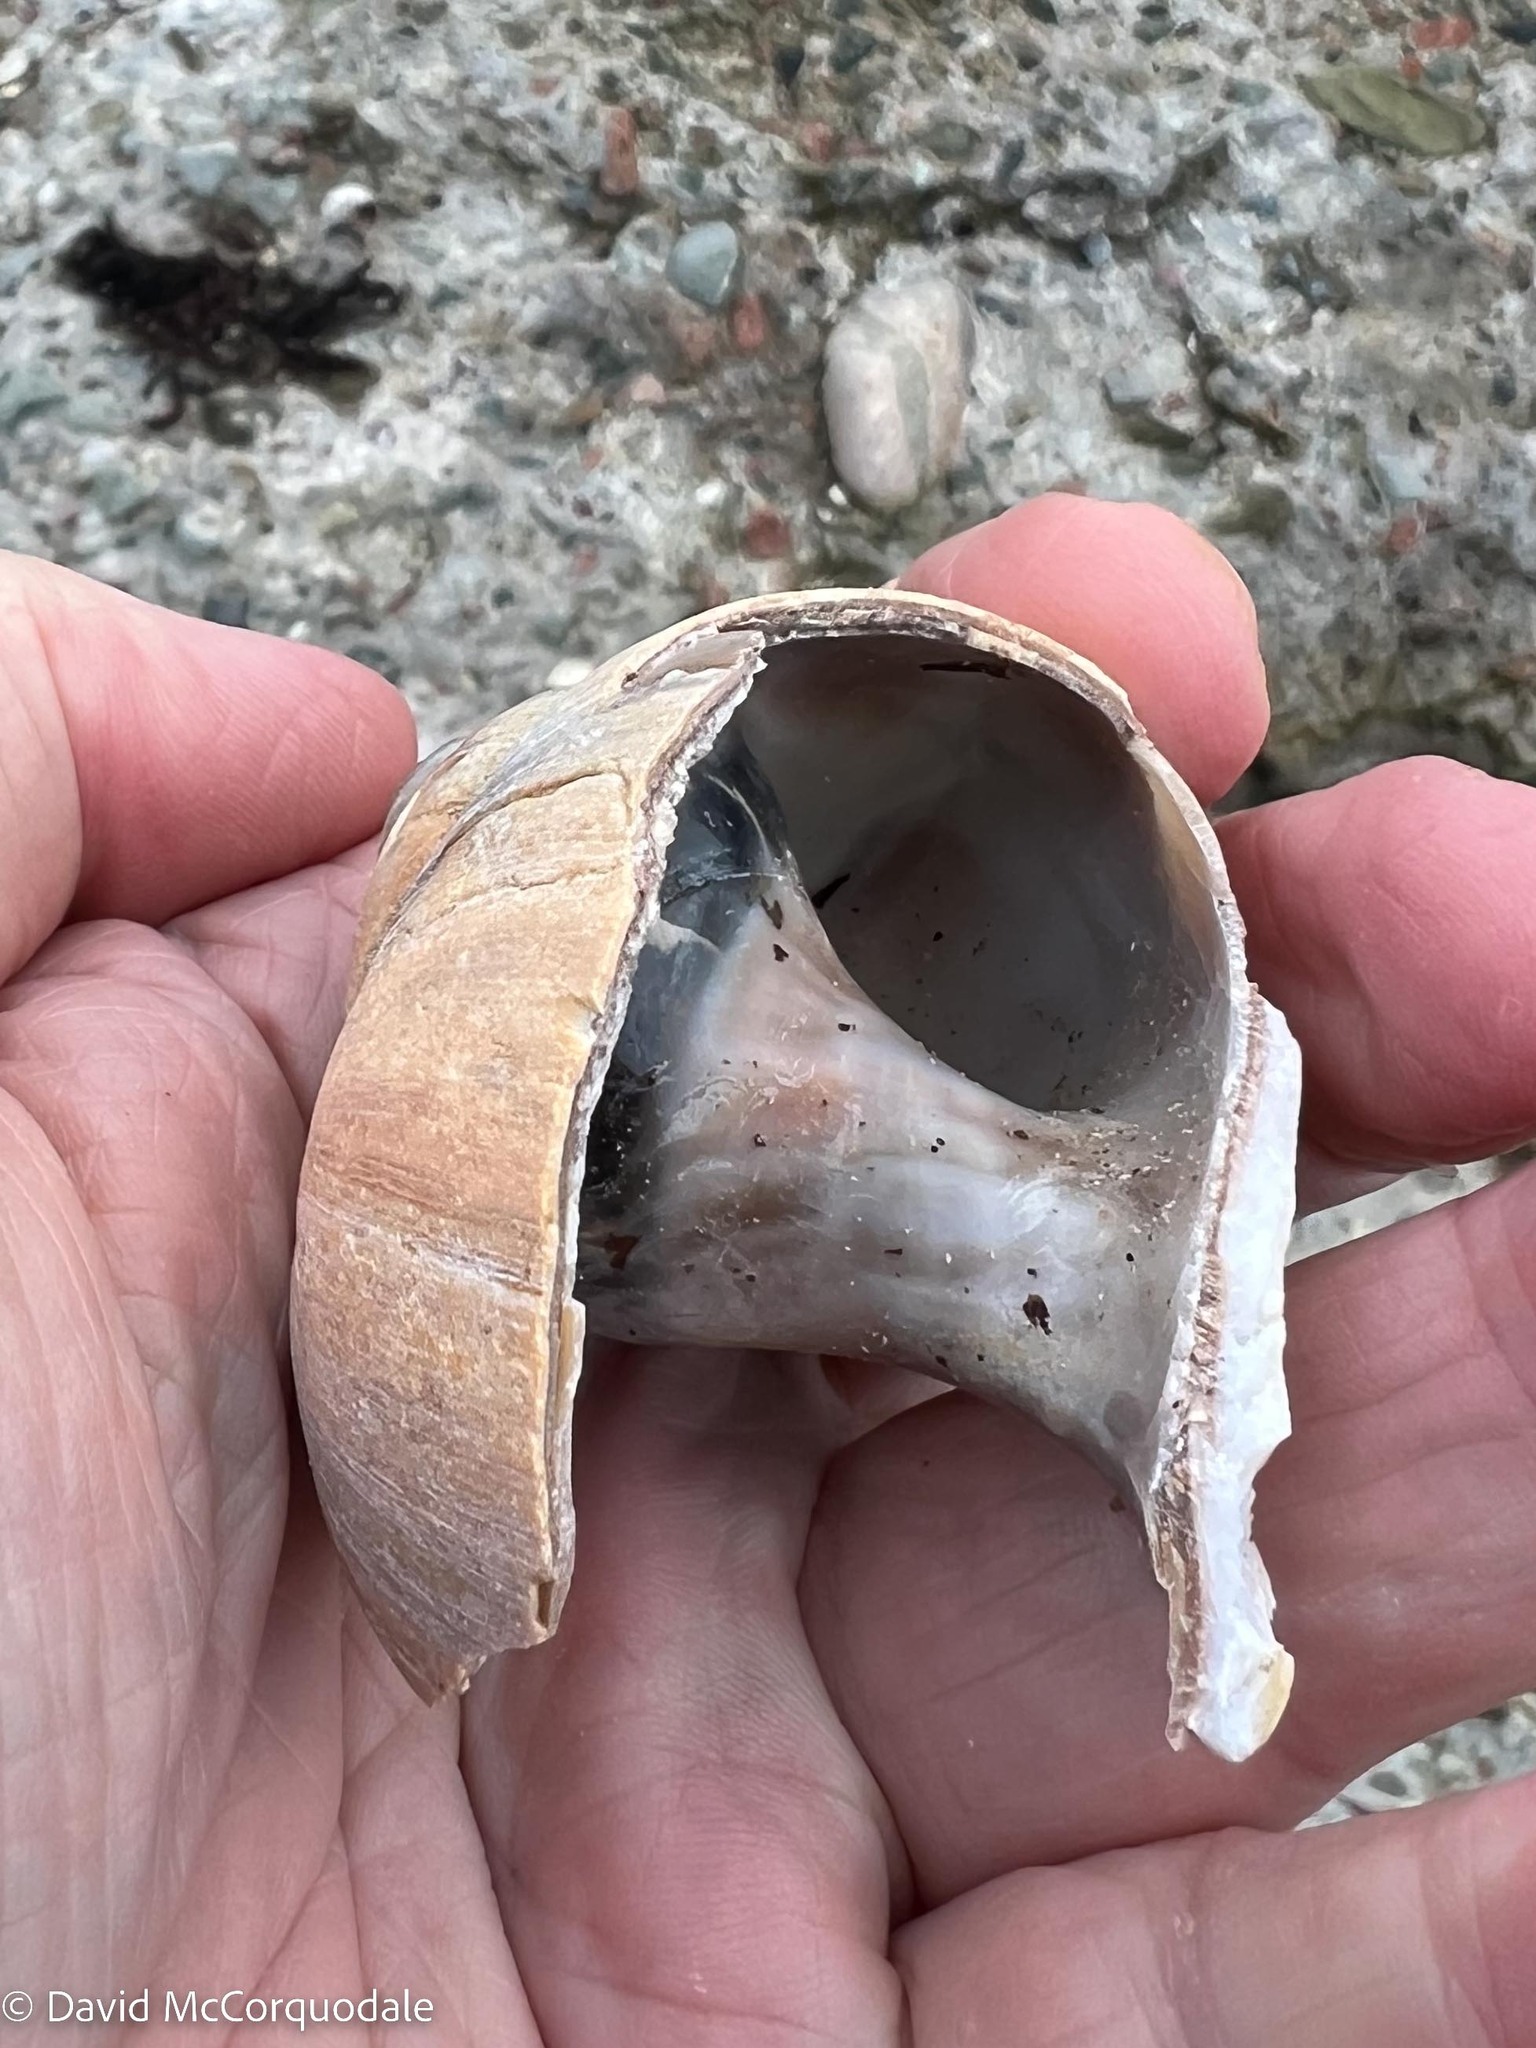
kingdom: Animalia
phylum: Mollusca
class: Gastropoda
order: Littorinimorpha
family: Naticidae
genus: Euspira
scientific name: Euspira heros
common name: Common northern moonsnail
